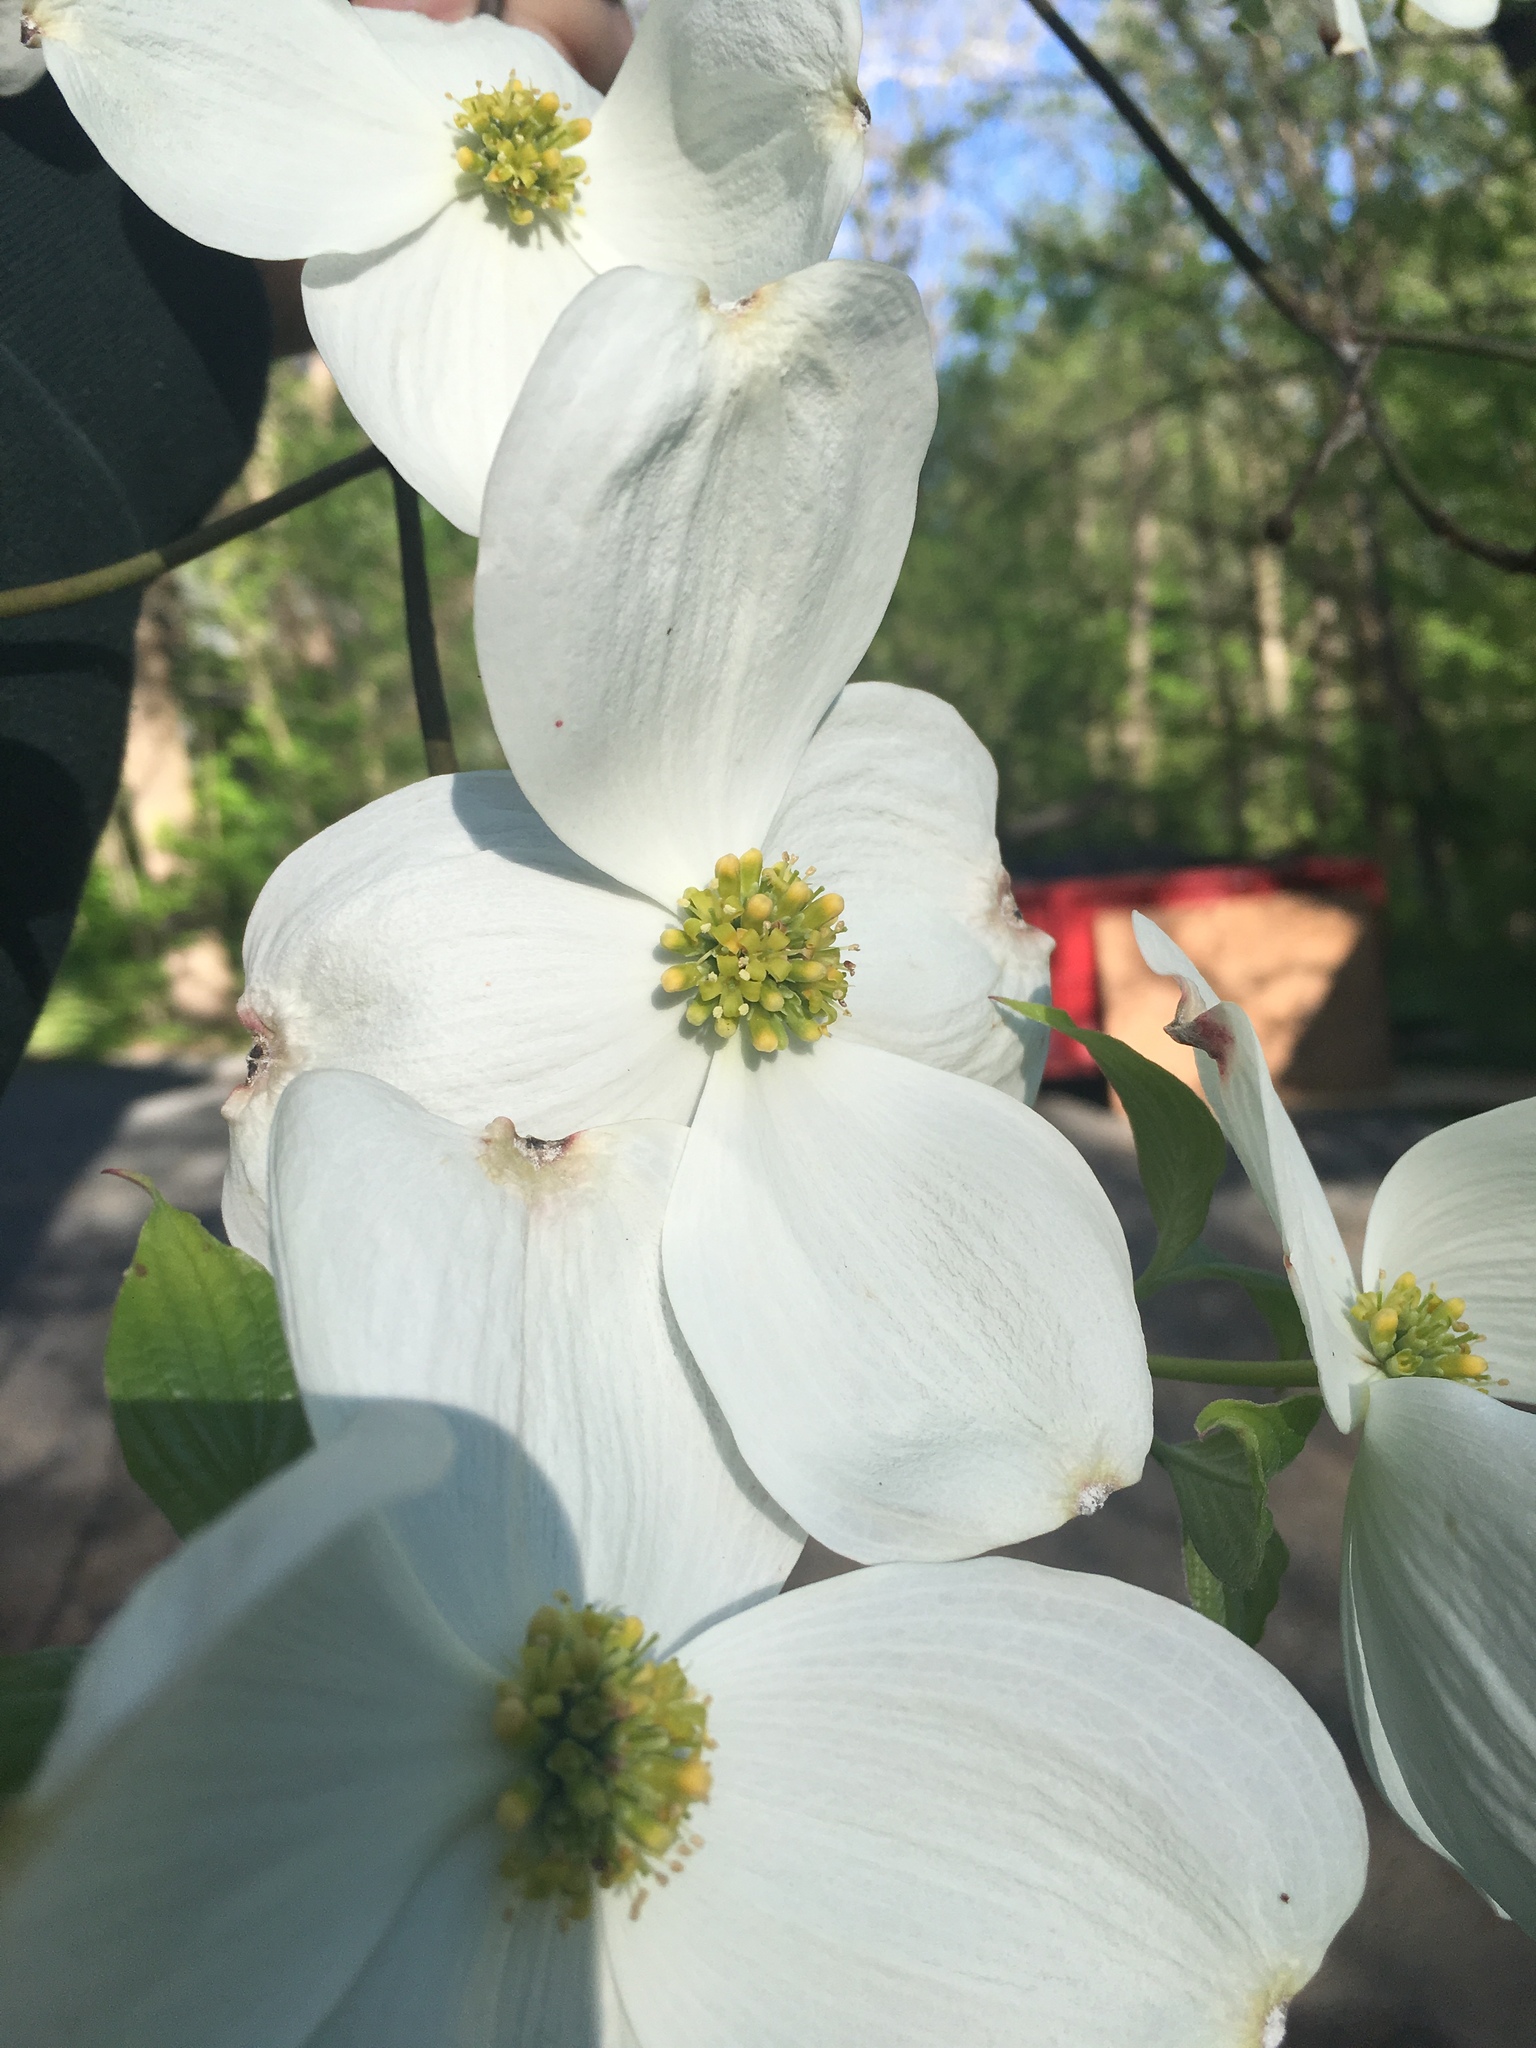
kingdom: Plantae
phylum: Tracheophyta
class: Magnoliopsida
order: Cornales
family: Cornaceae
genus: Cornus
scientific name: Cornus florida
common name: Flowering dogwood
